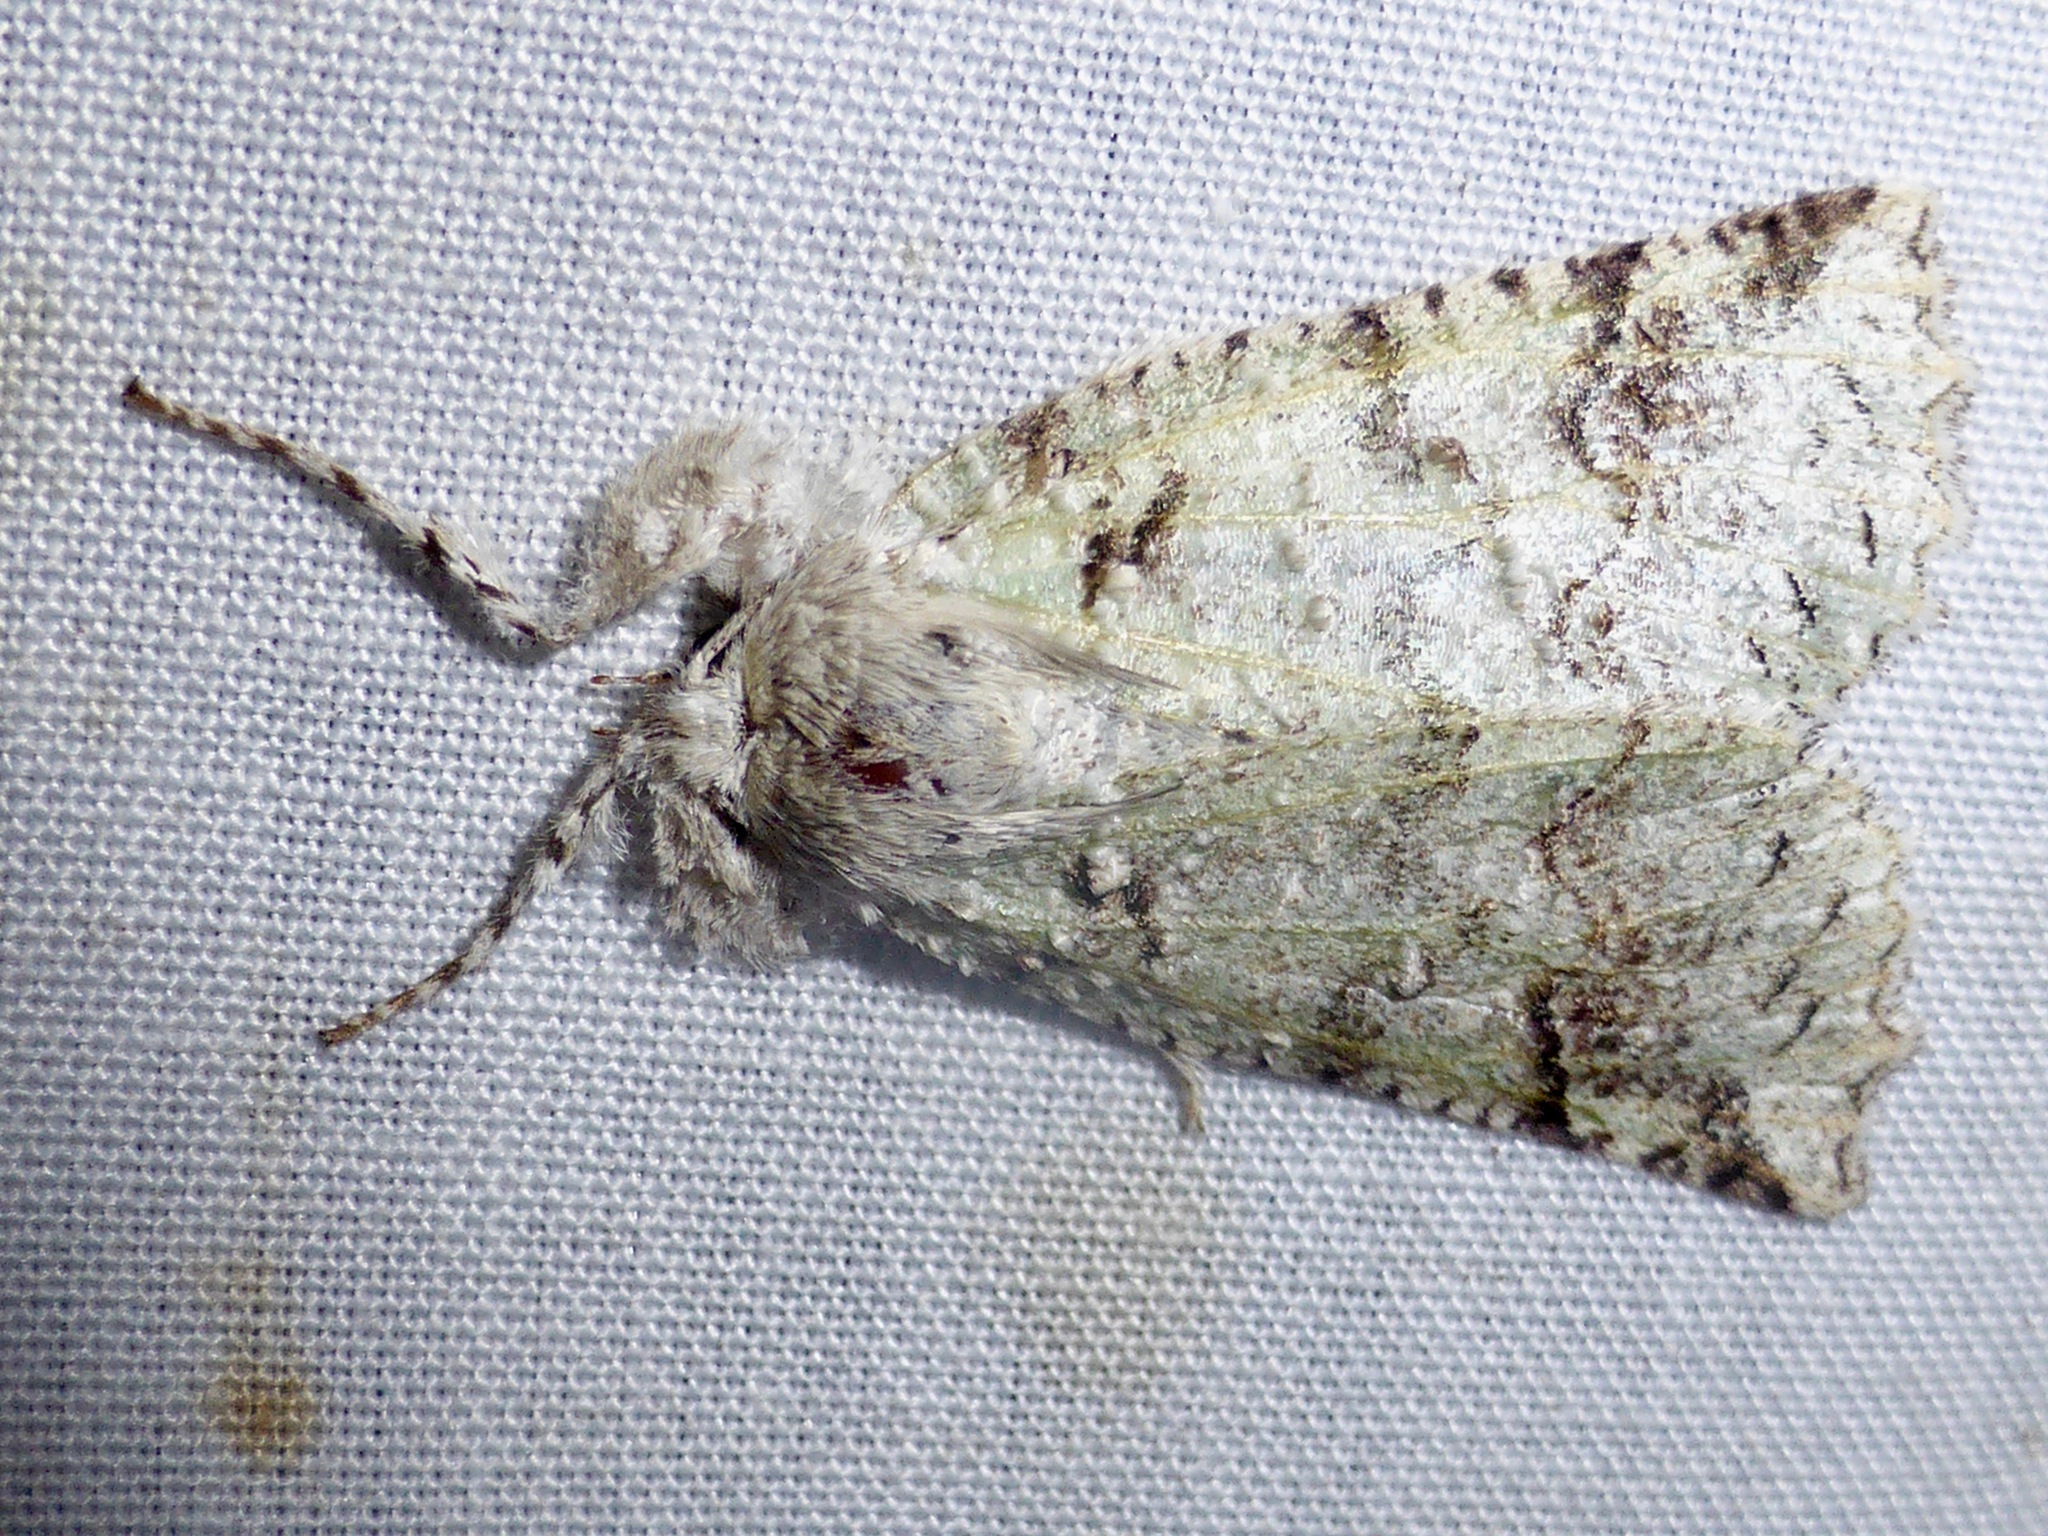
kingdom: Animalia
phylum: Arthropoda
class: Insecta
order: Lepidoptera
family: Geometridae
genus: Declana
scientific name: Declana floccosa
